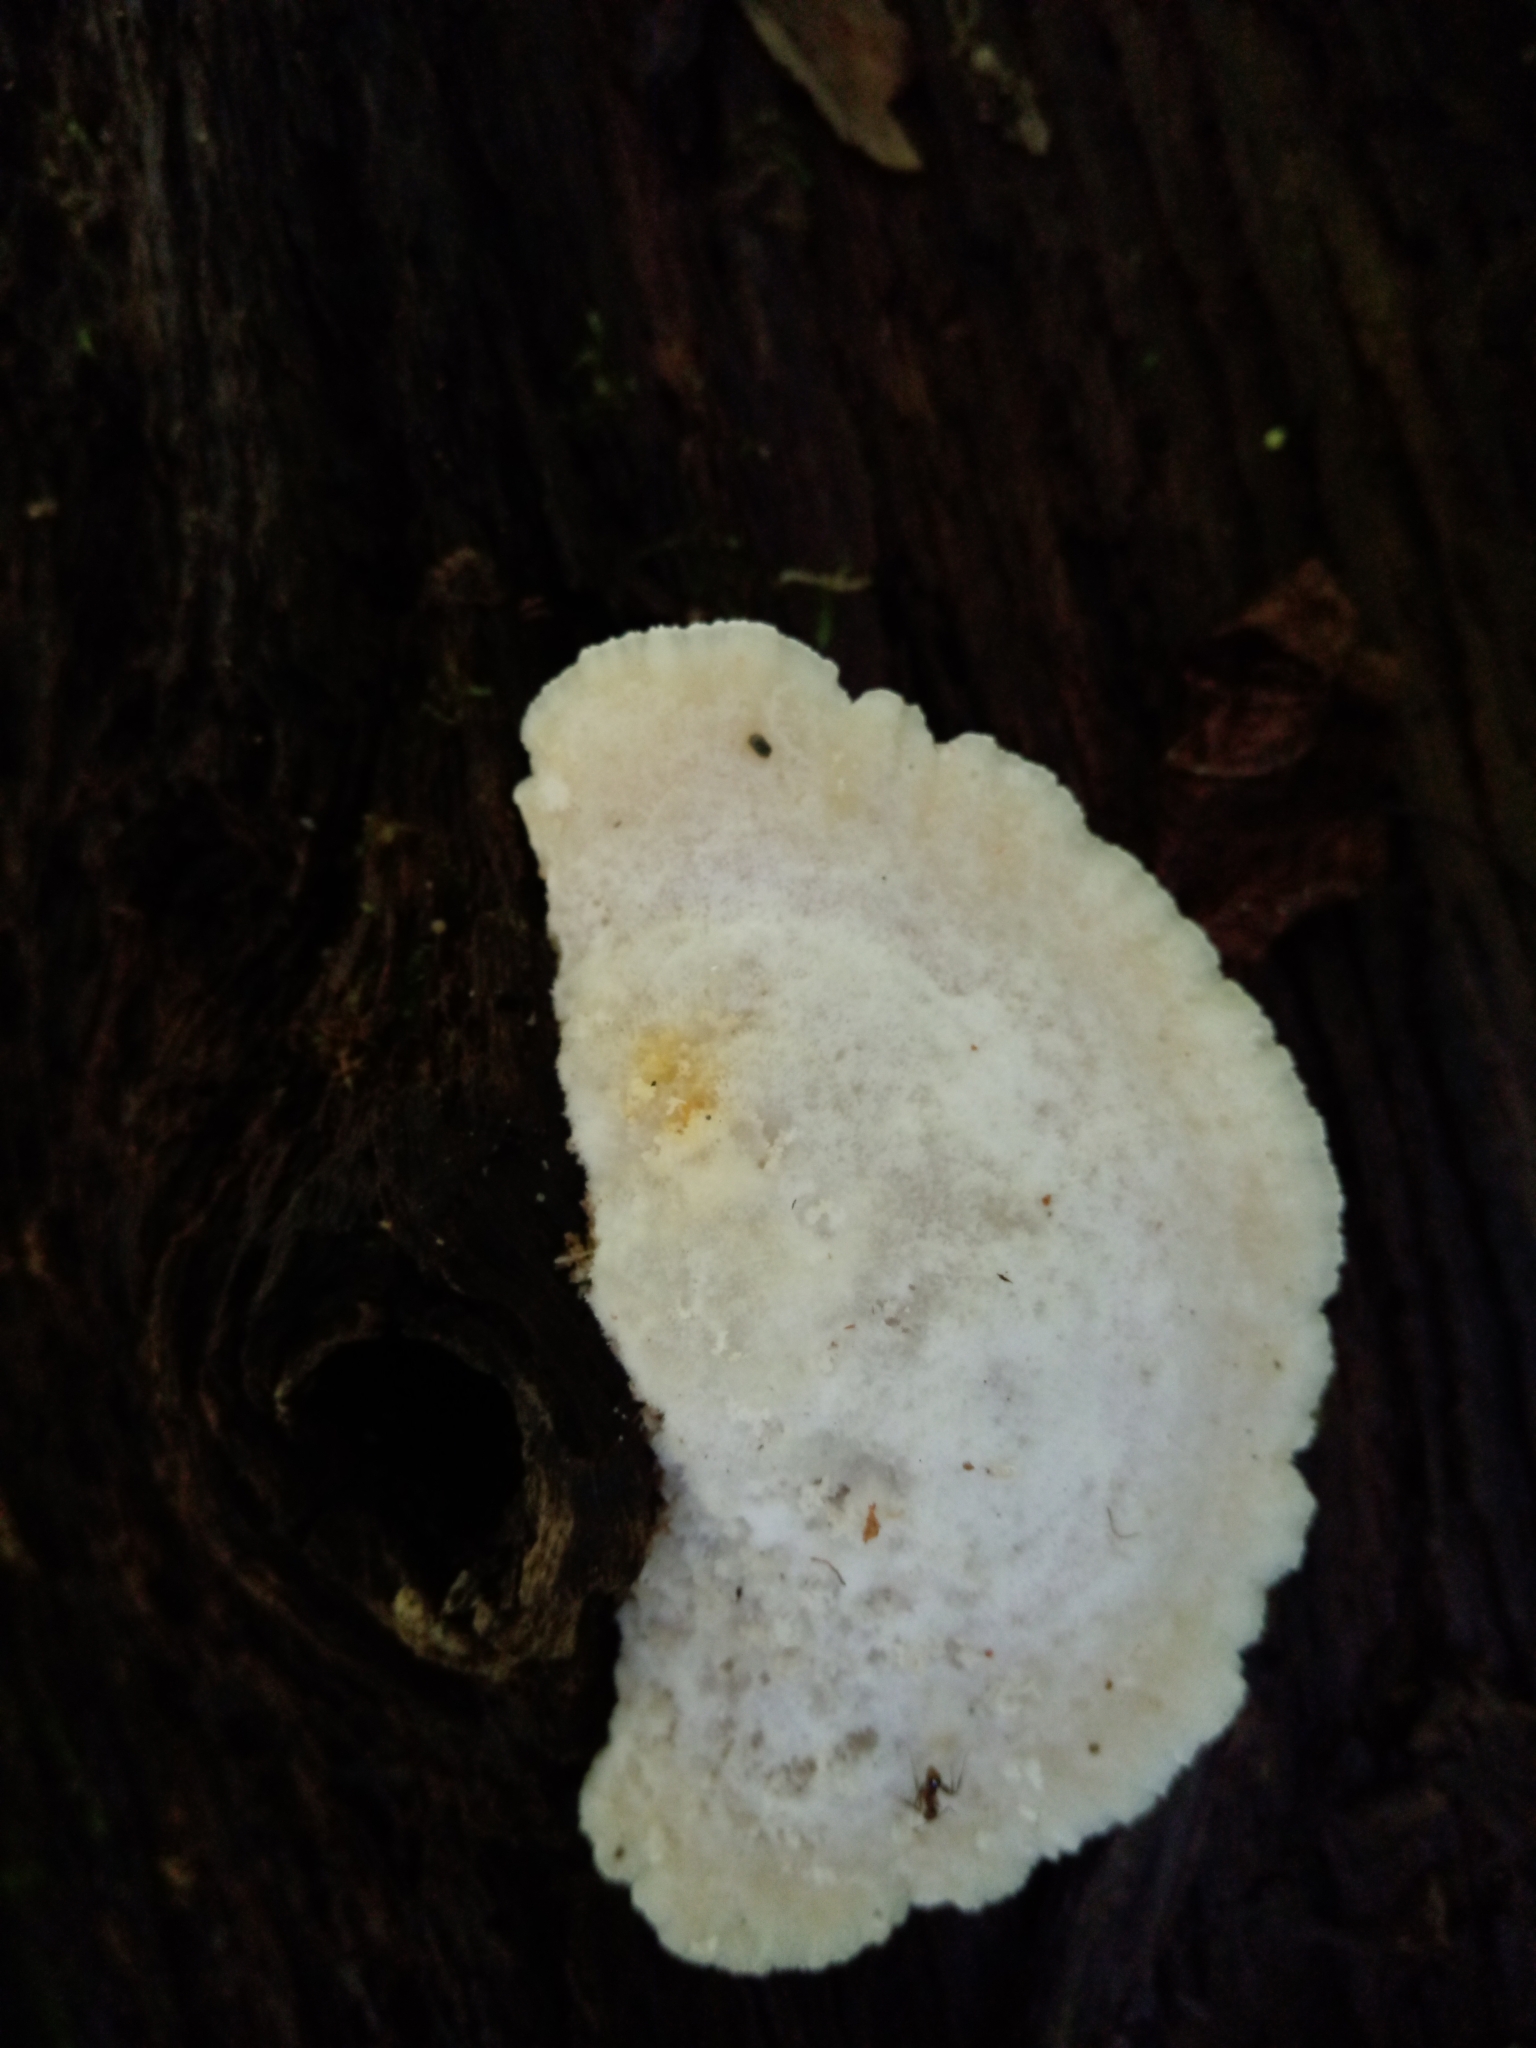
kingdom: Fungi
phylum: Basidiomycota
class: Agaricomycetes
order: Polyporales
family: Incrustoporiaceae
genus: Tyromyces
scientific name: Tyromyces galactinus
